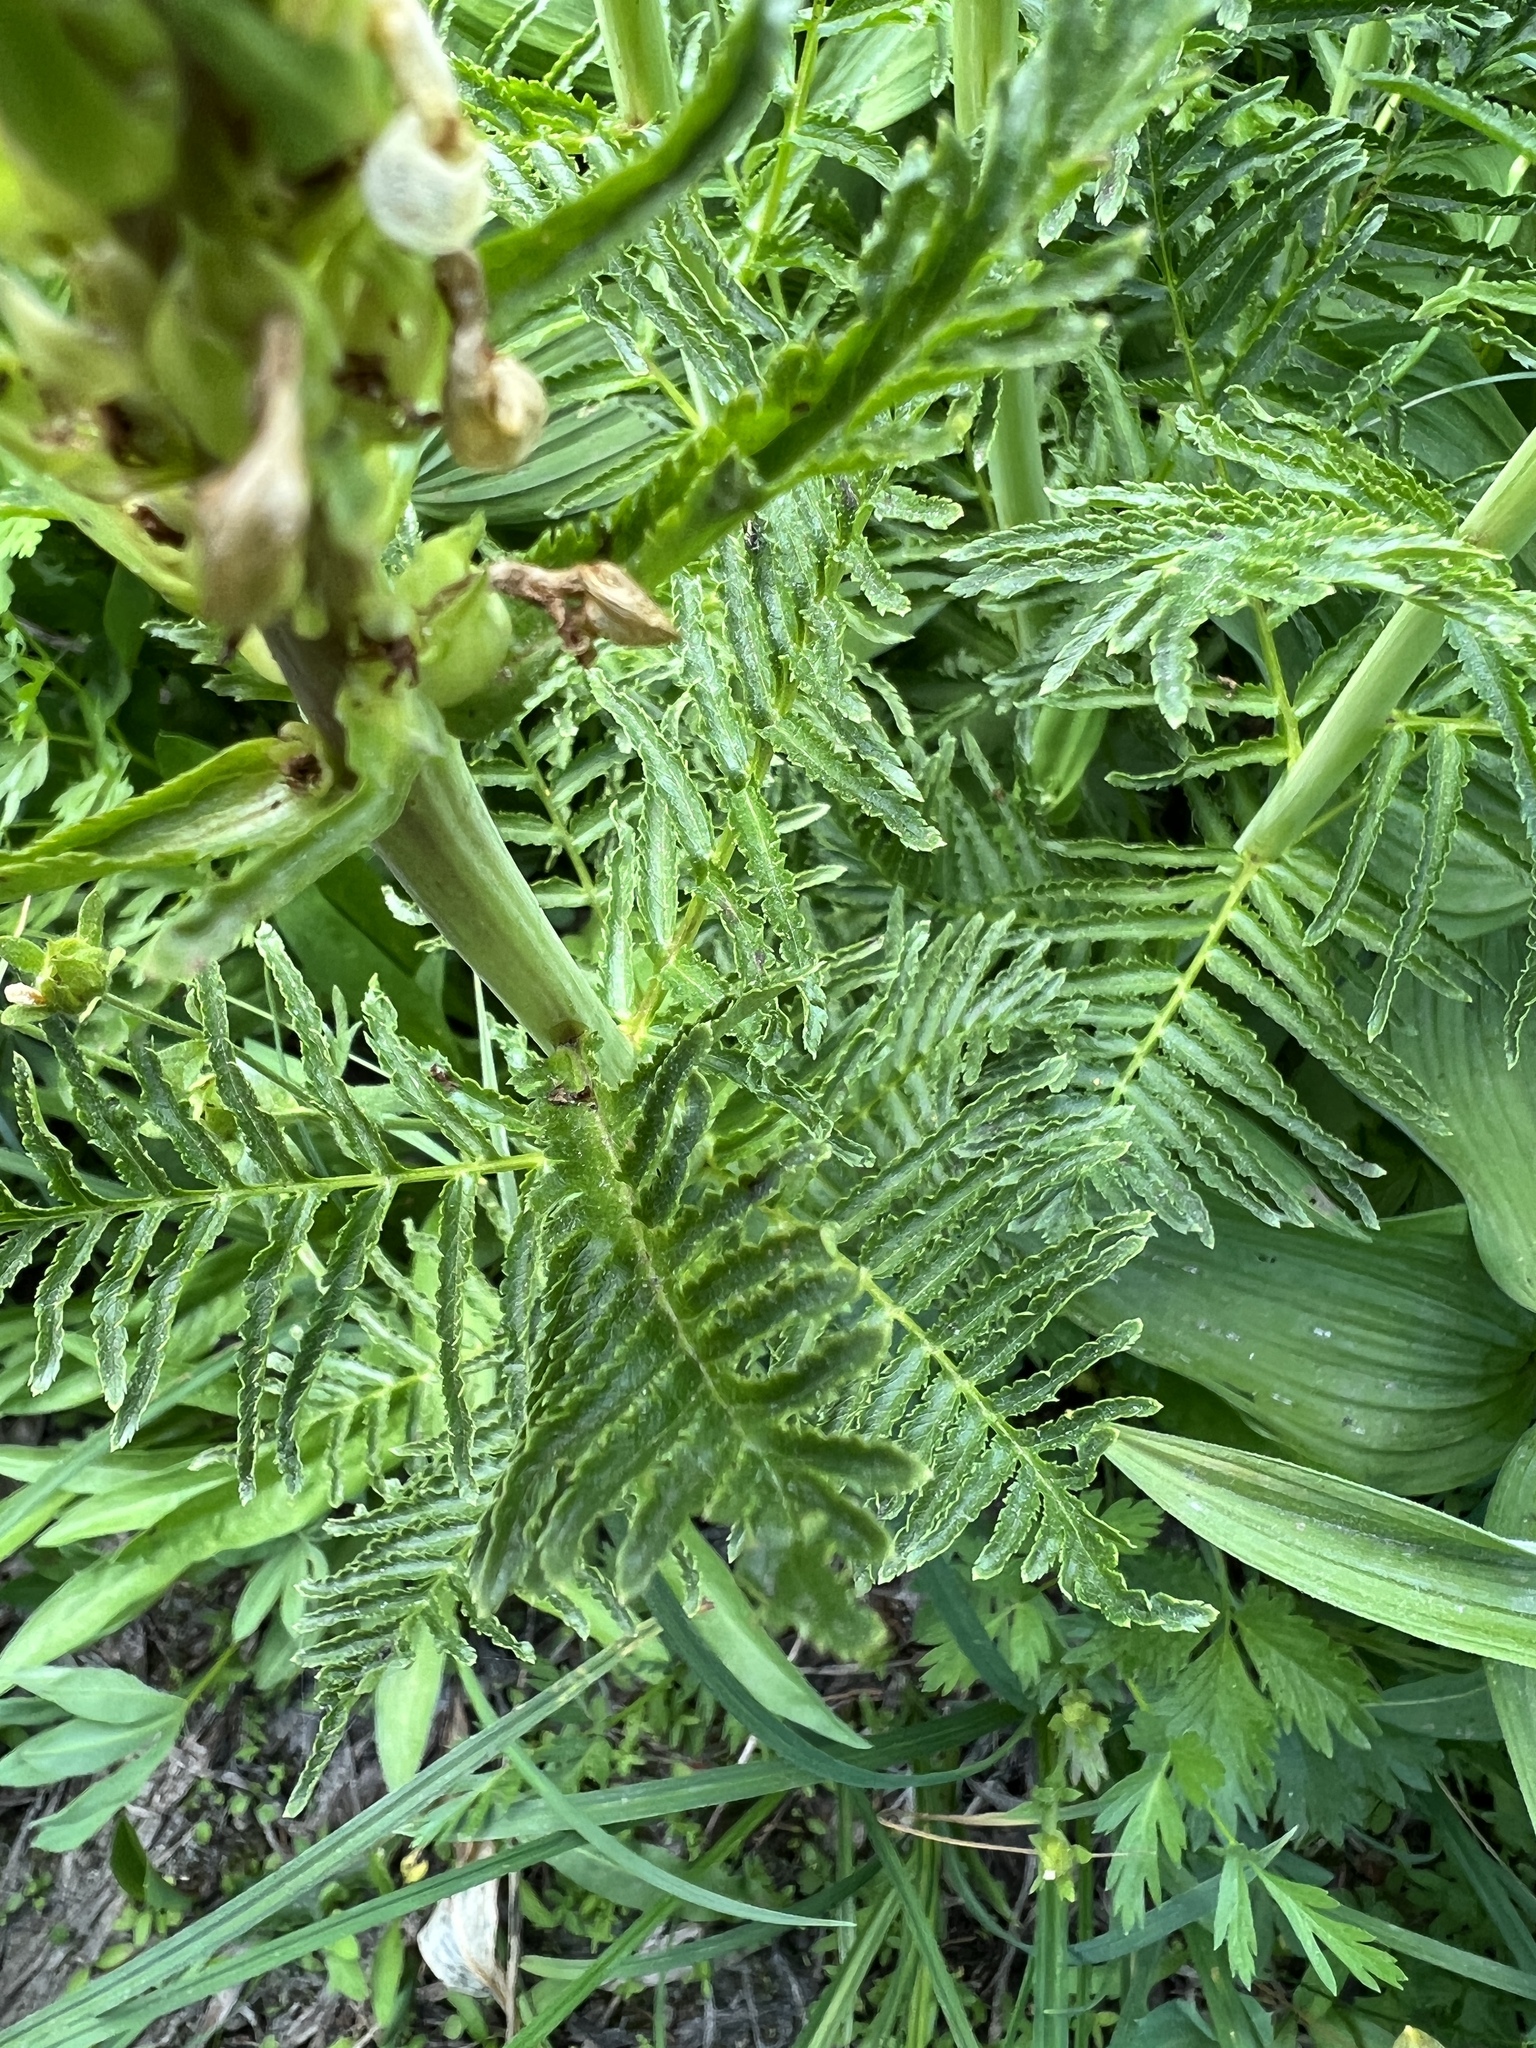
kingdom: Plantae
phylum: Tracheophyta
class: Magnoliopsida
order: Lamiales
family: Orobanchaceae
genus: Pedicularis
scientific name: Pedicularis bracteosa
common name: Bracted lousewort
